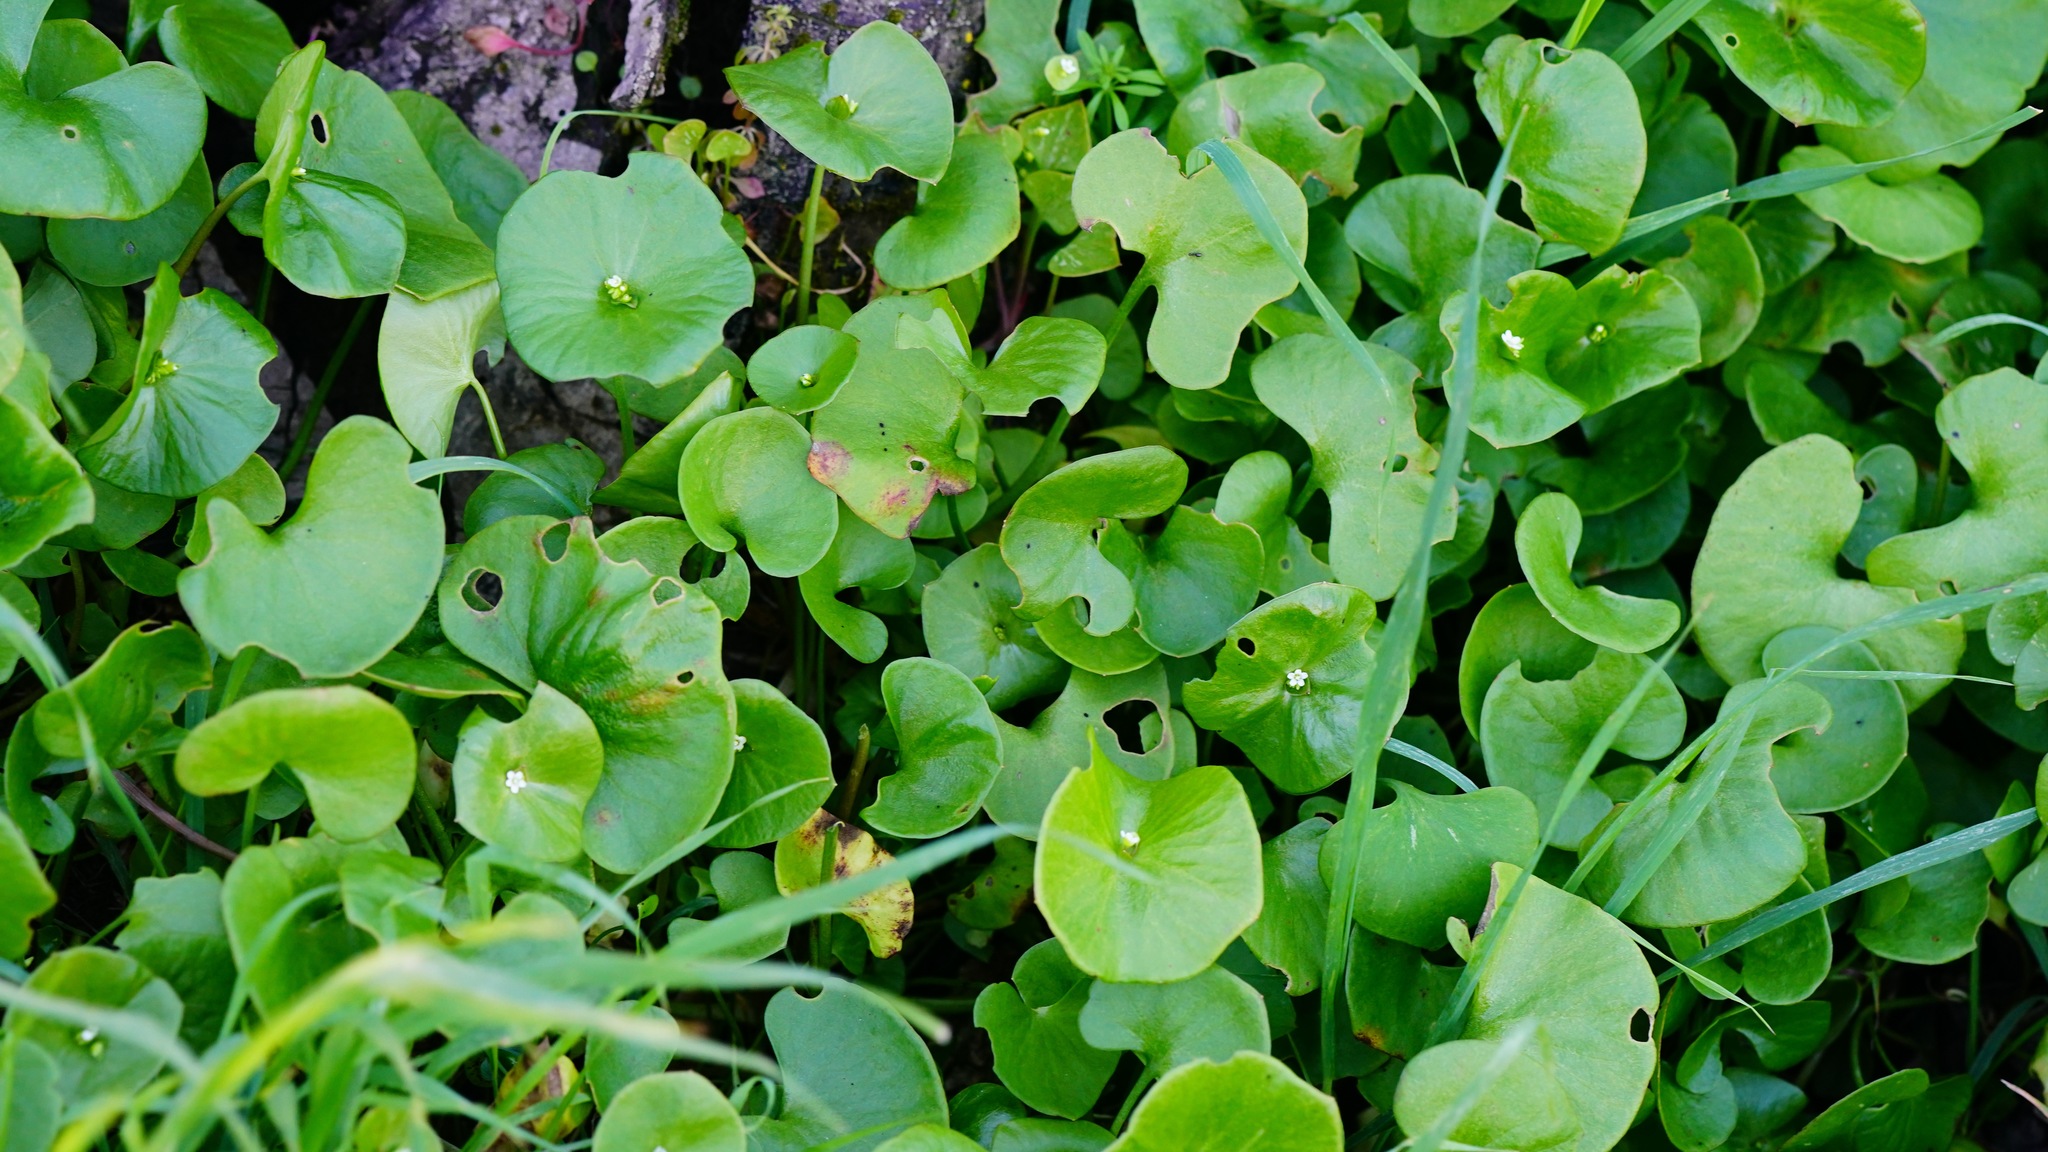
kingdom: Plantae
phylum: Tracheophyta
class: Magnoliopsida
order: Caryophyllales
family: Montiaceae
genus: Claytonia
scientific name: Claytonia perfoliata
